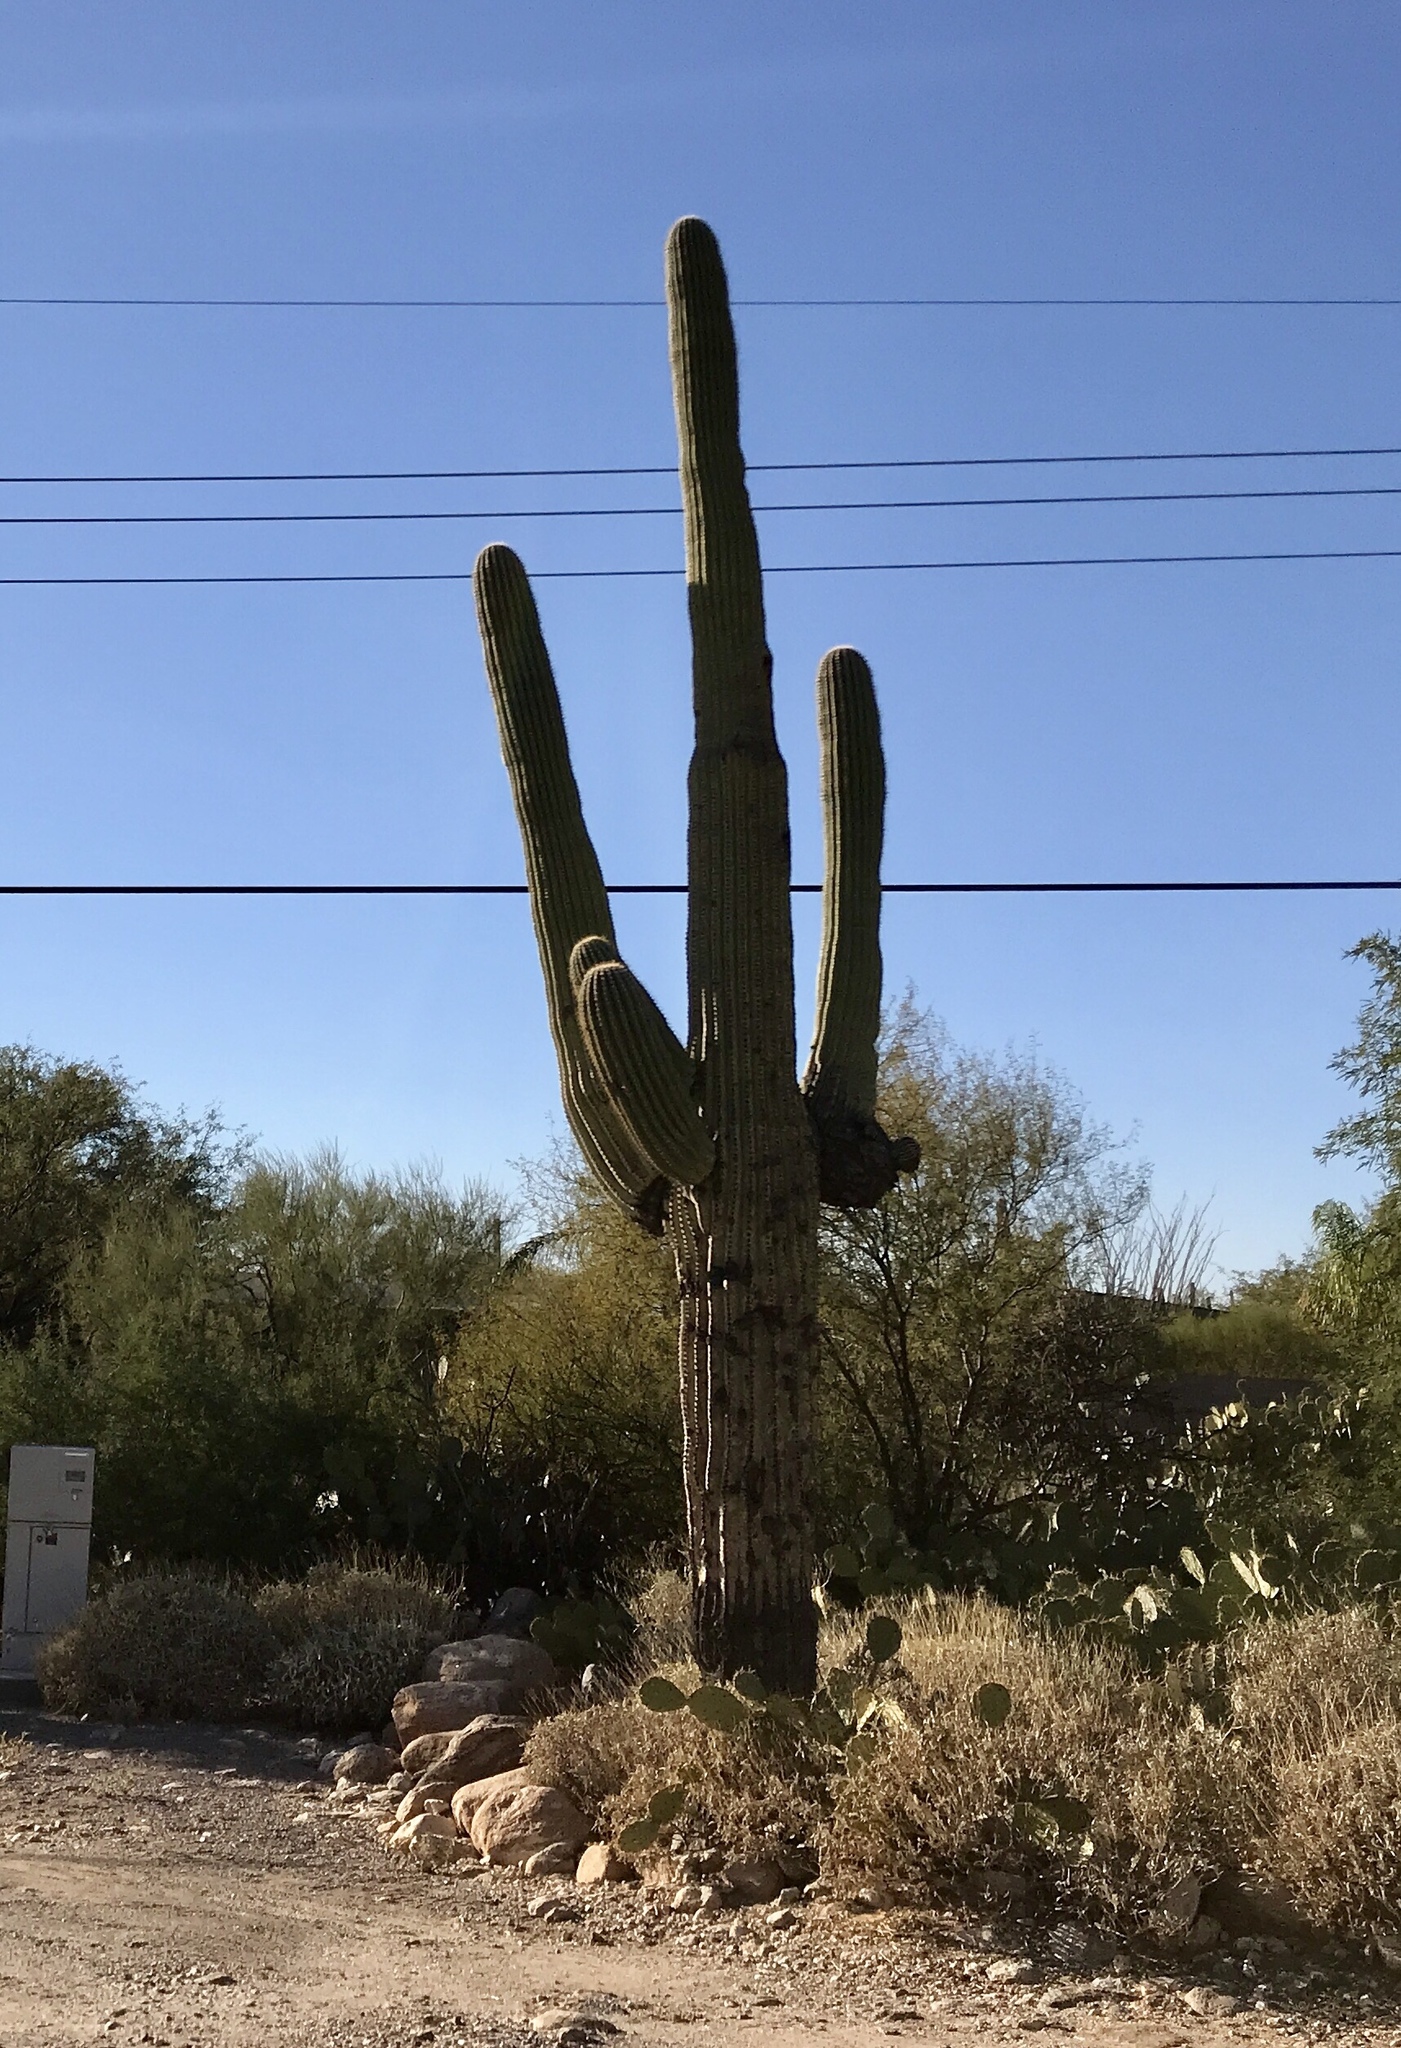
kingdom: Plantae
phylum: Tracheophyta
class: Magnoliopsida
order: Caryophyllales
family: Cactaceae
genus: Carnegiea
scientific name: Carnegiea gigantea
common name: Saguaro
